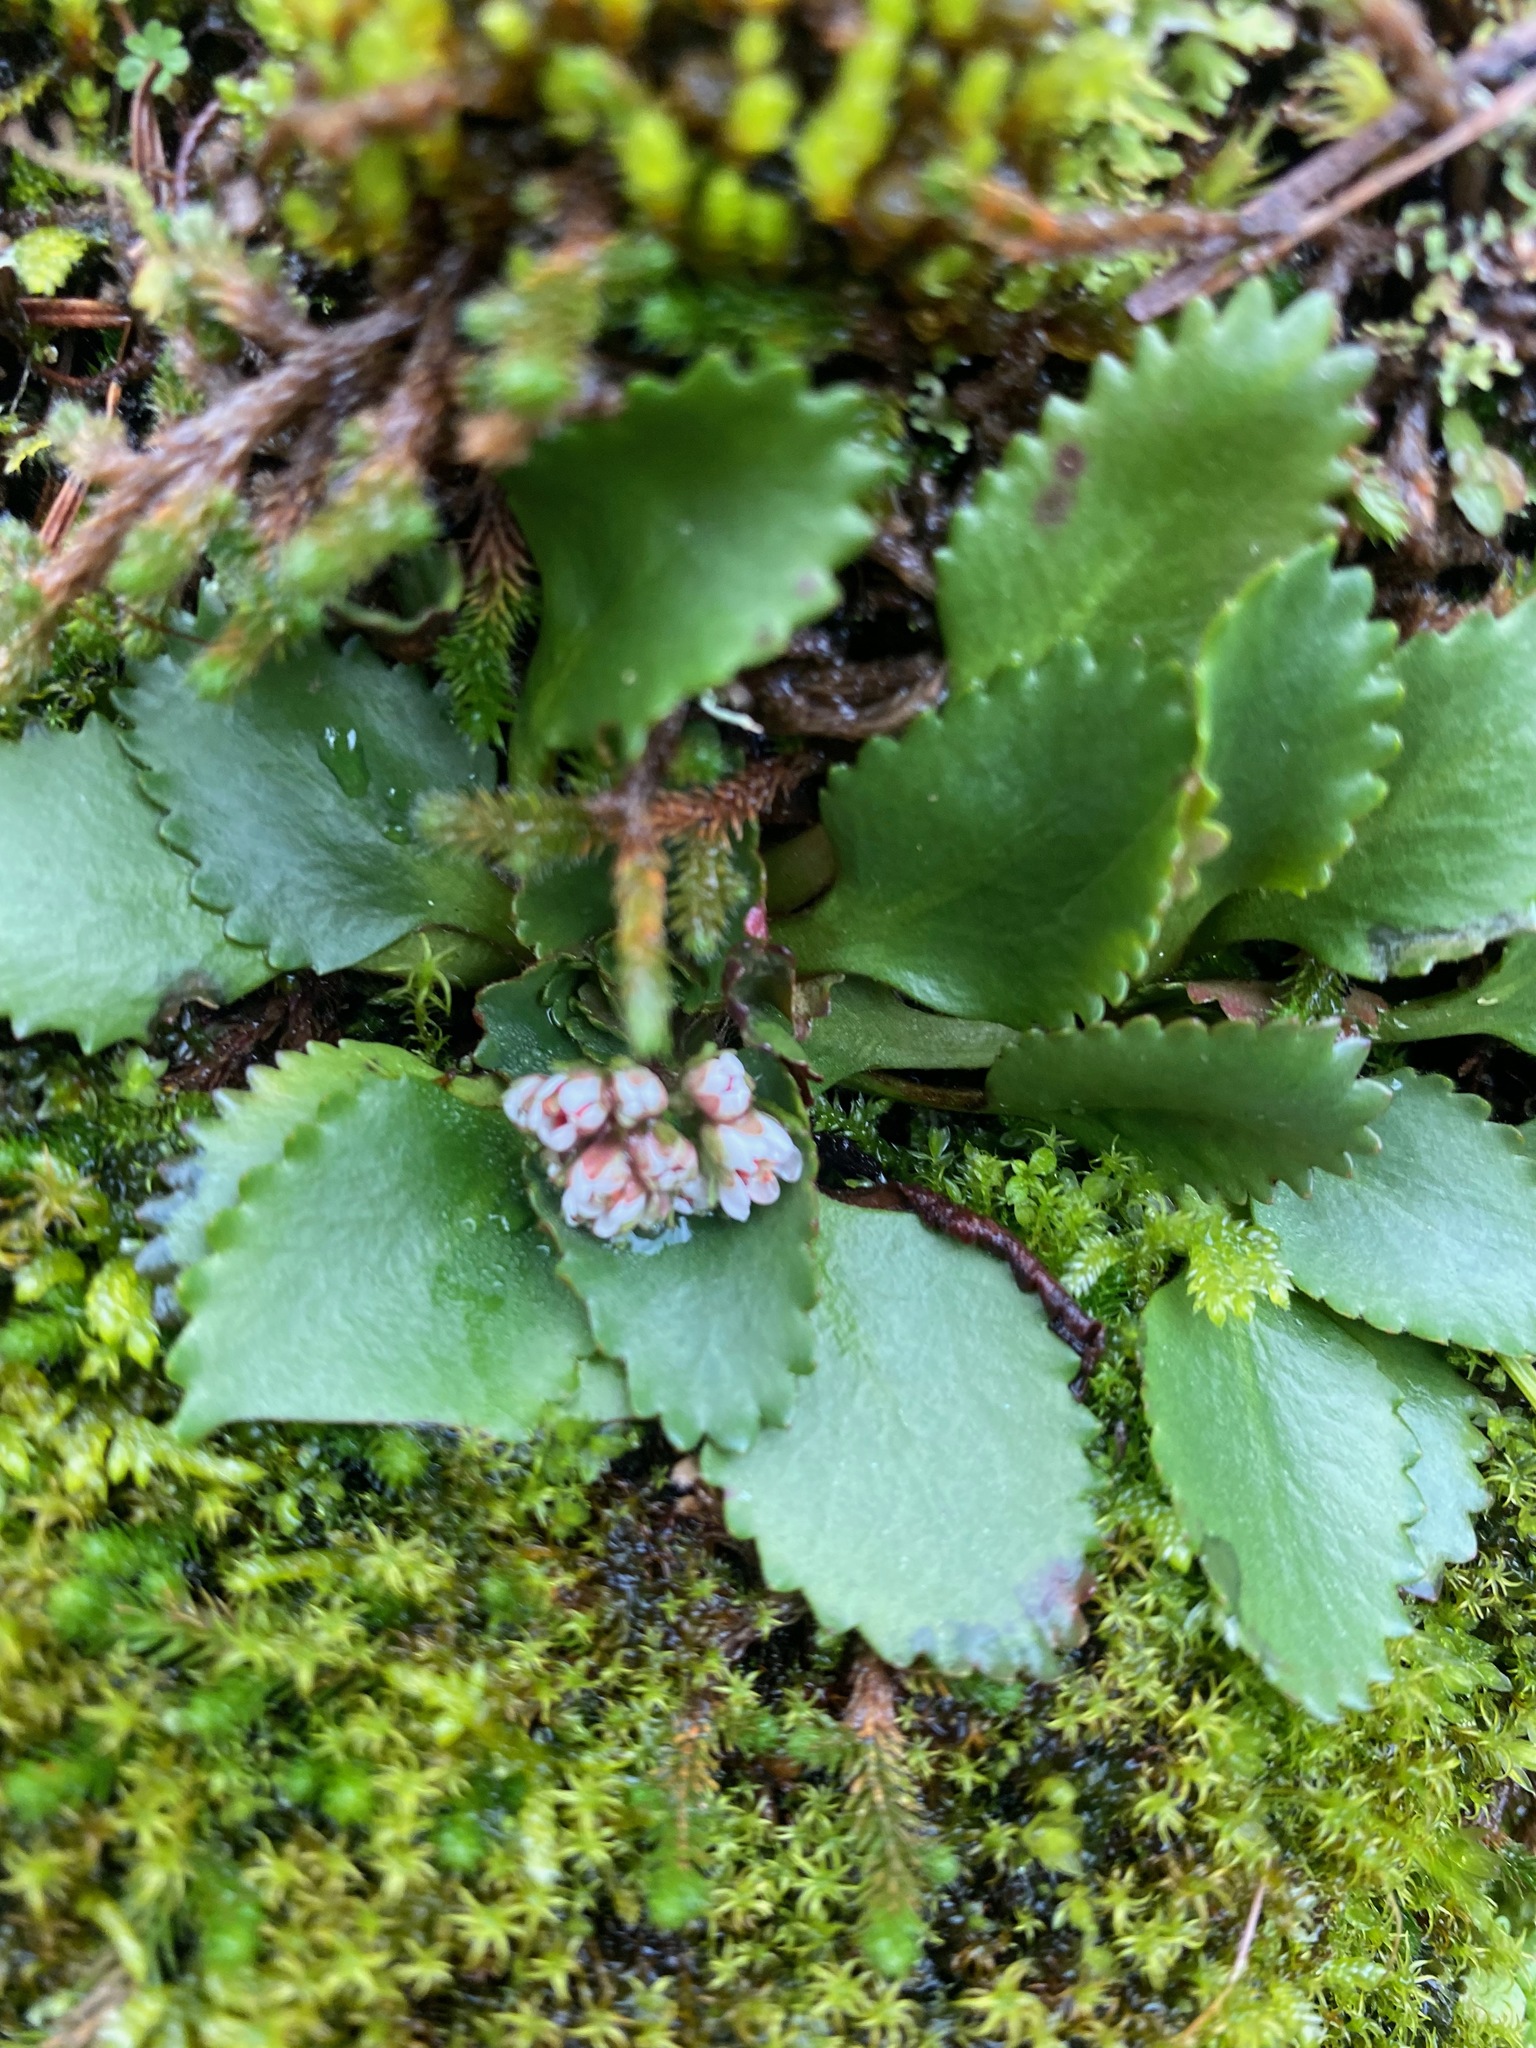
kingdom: Plantae
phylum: Tracheophyta
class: Magnoliopsida
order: Saxifragales
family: Saxifragaceae
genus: Micranthes
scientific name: Micranthes rufidula
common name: Rustyhair saxifrage
